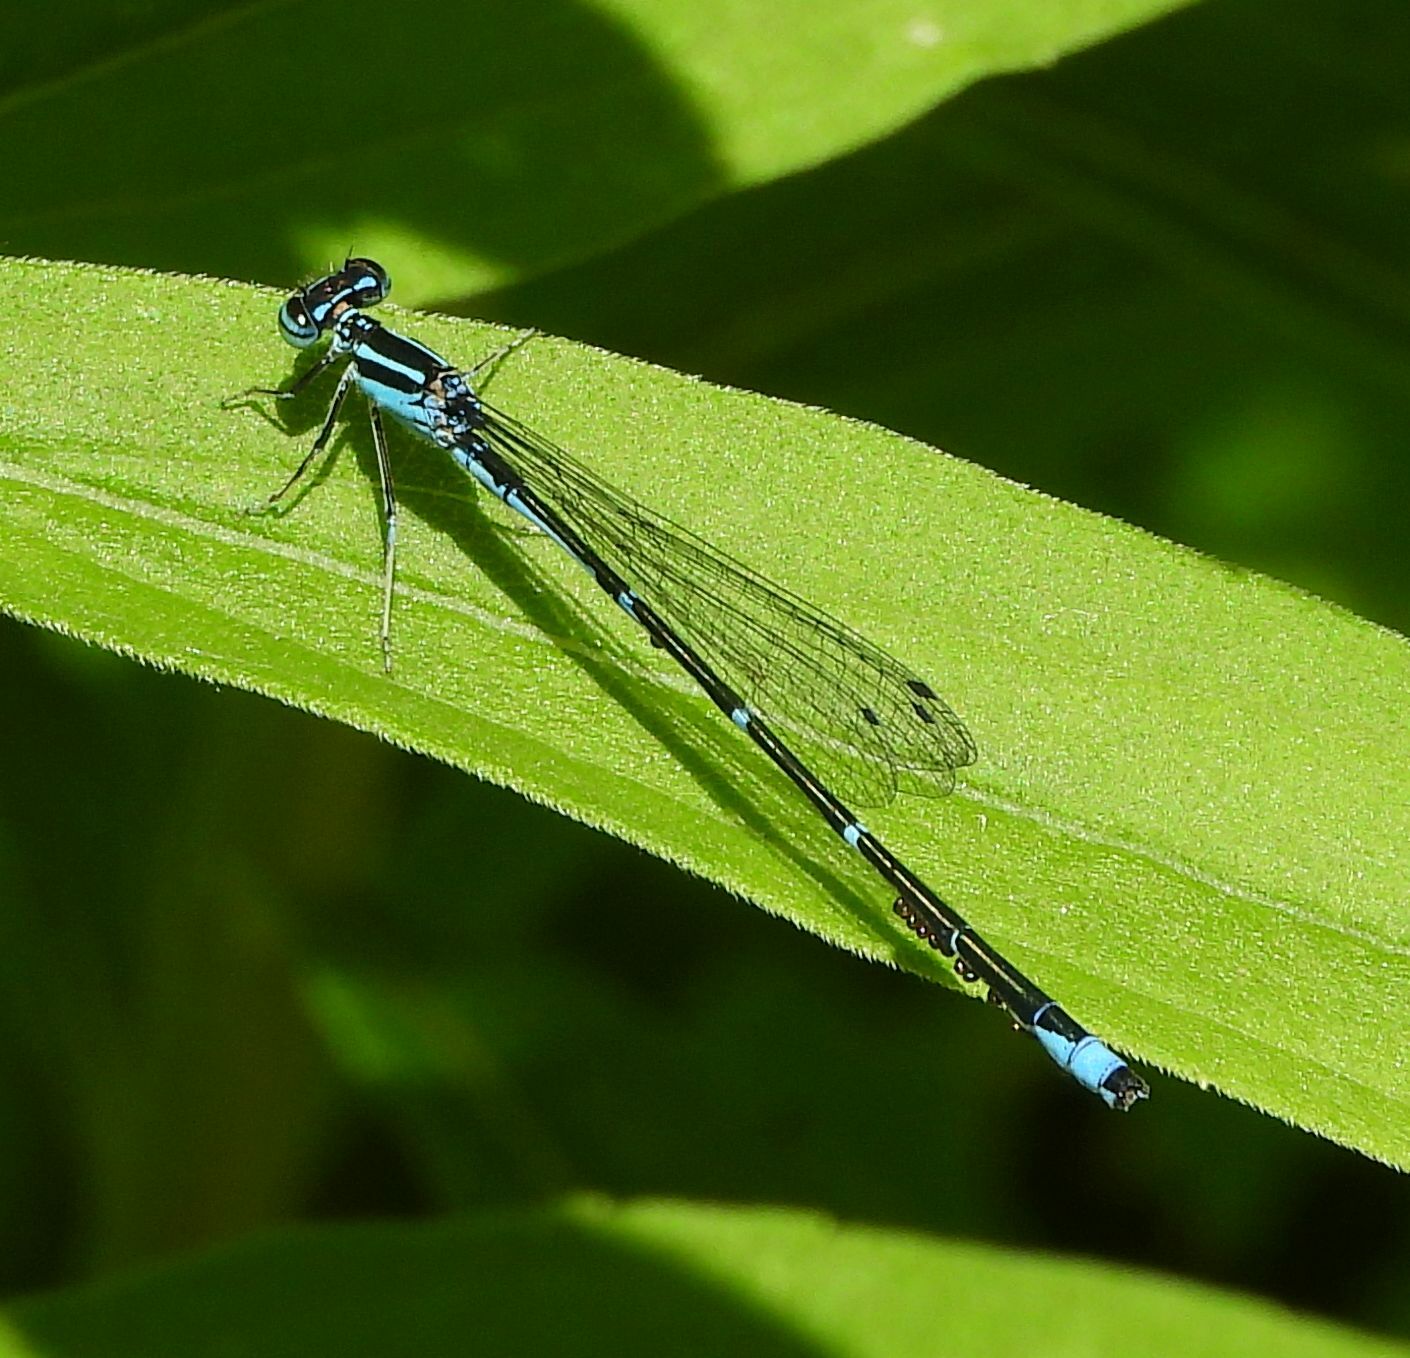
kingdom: Animalia
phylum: Arthropoda
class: Insecta
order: Odonata
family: Coenagrionidae
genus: Enallagma
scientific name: Enallagma exsulans
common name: Stream bluet
